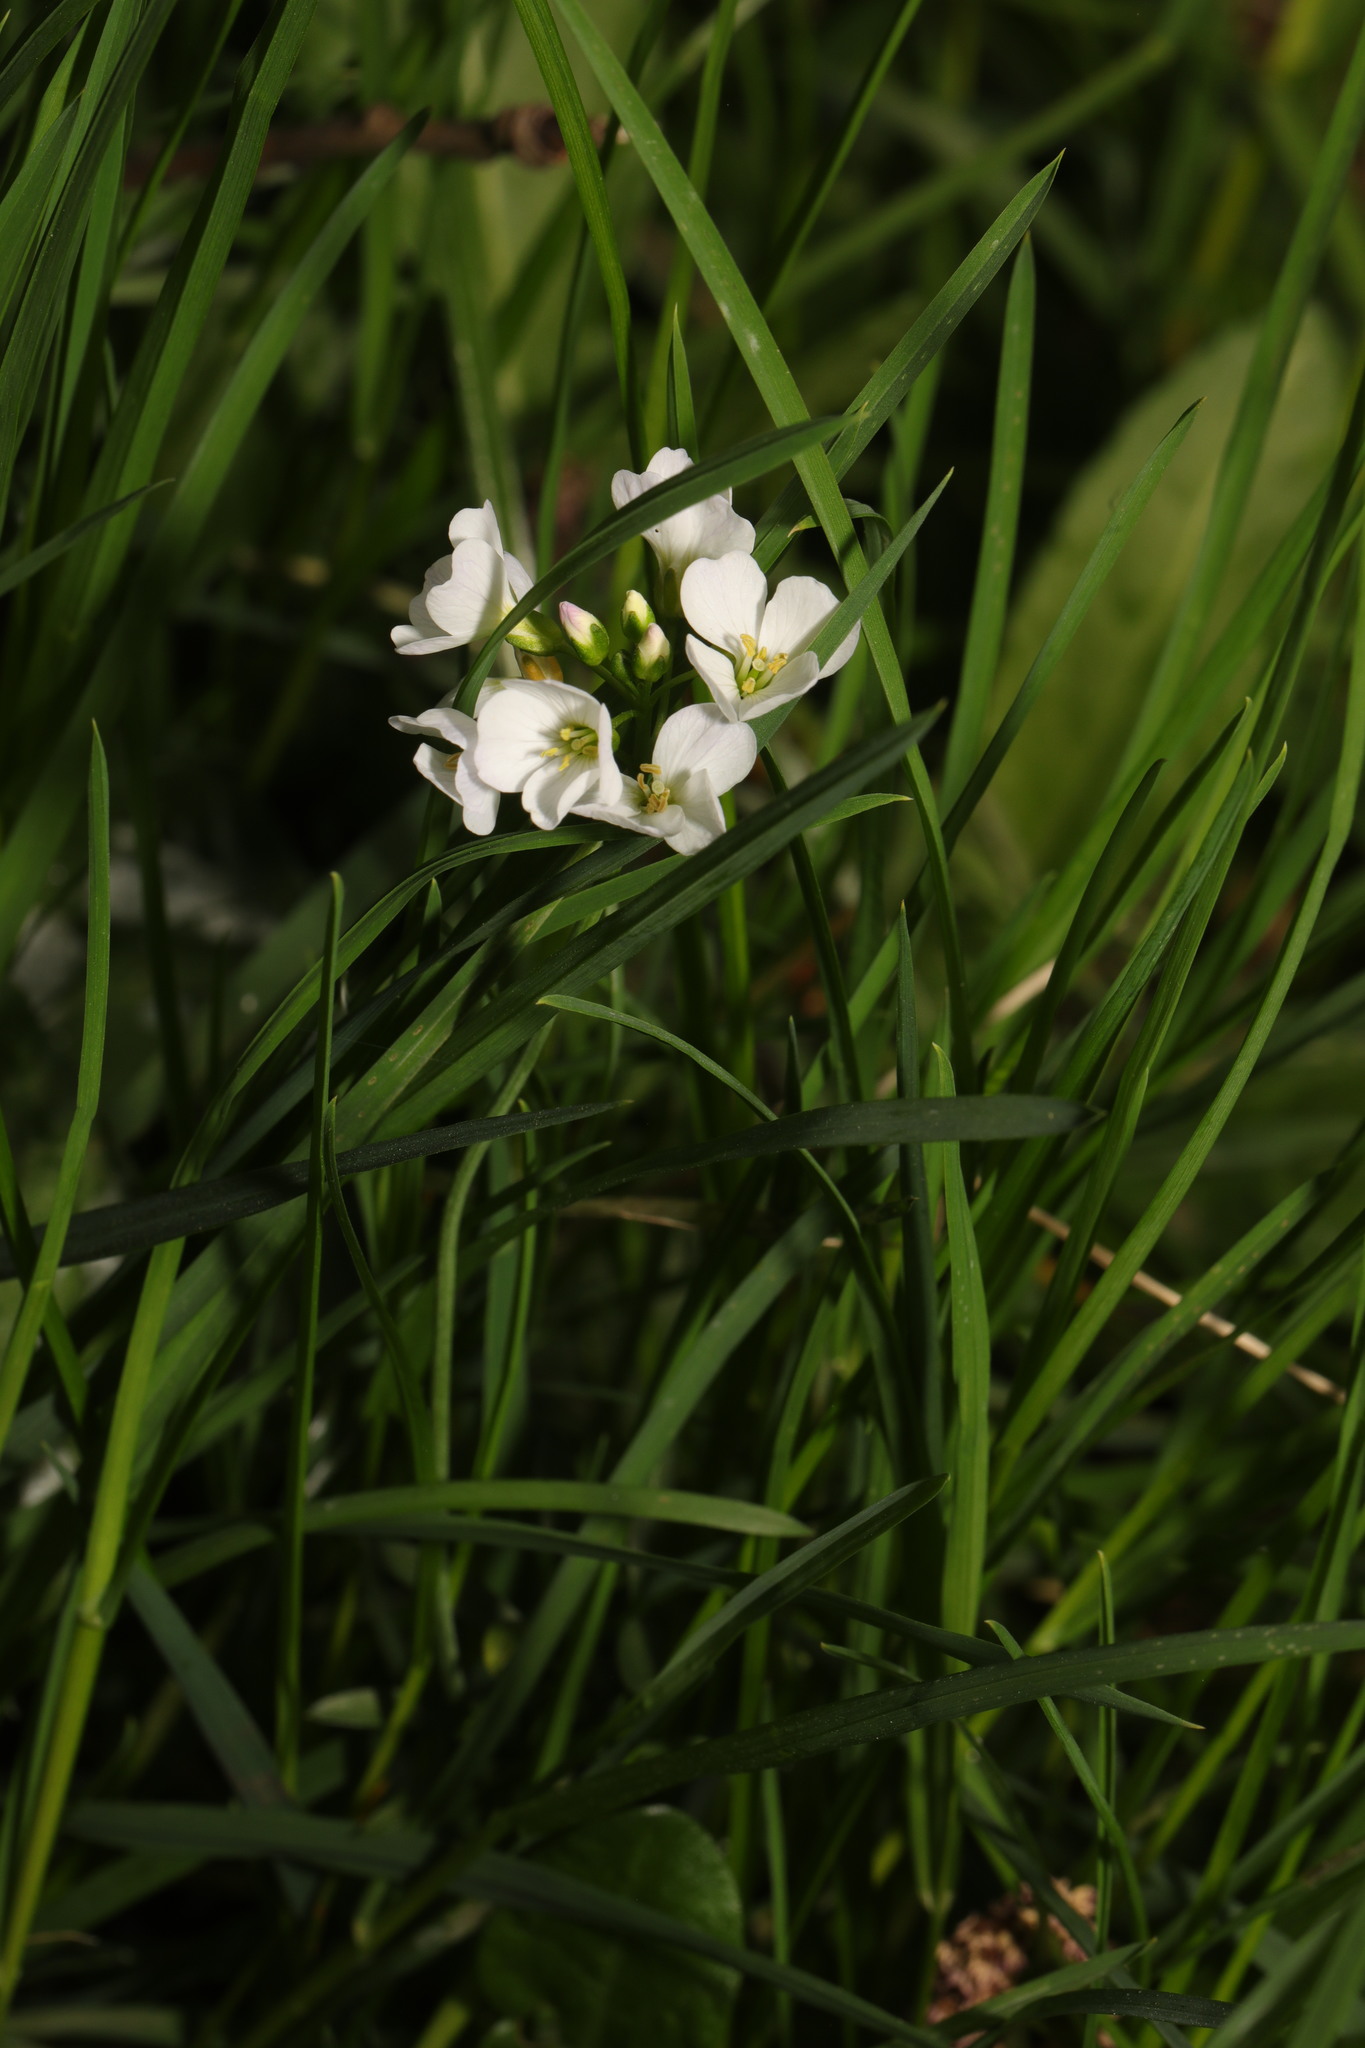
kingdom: Plantae
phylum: Tracheophyta
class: Magnoliopsida
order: Brassicales
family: Brassicaceae
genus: Cardamine
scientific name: Cardamine pratensis
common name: Cuckoo flower
